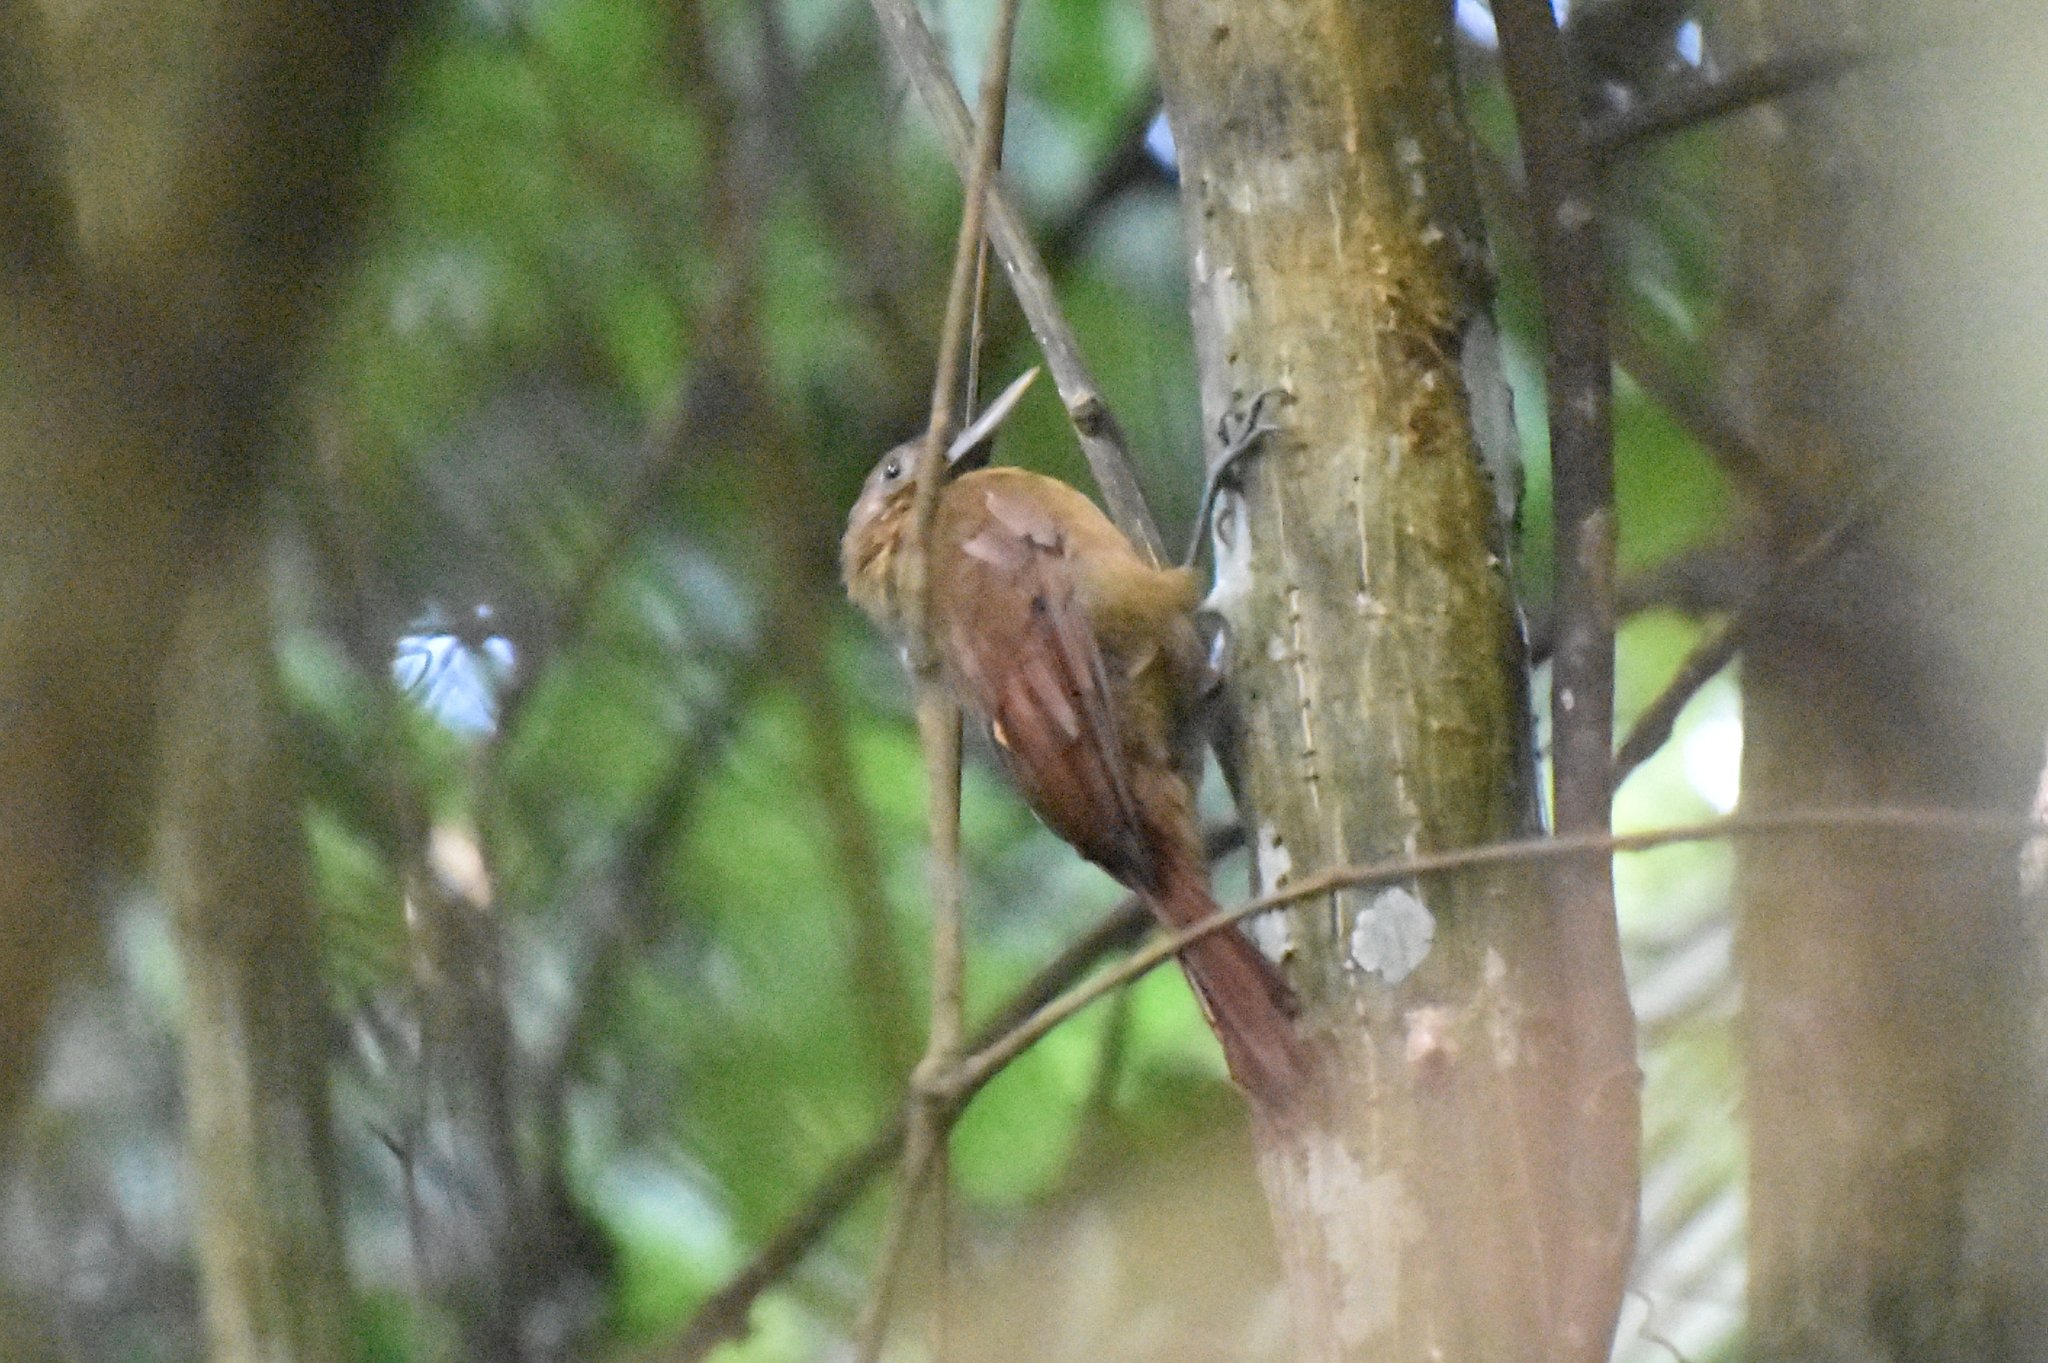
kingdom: Animalia
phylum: Chordata
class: Aves
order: Passeriformes
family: Furnariidae
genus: Dendrocincla
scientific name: Dendrocincla fuliginosa
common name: Plain-brown woodcreeper
